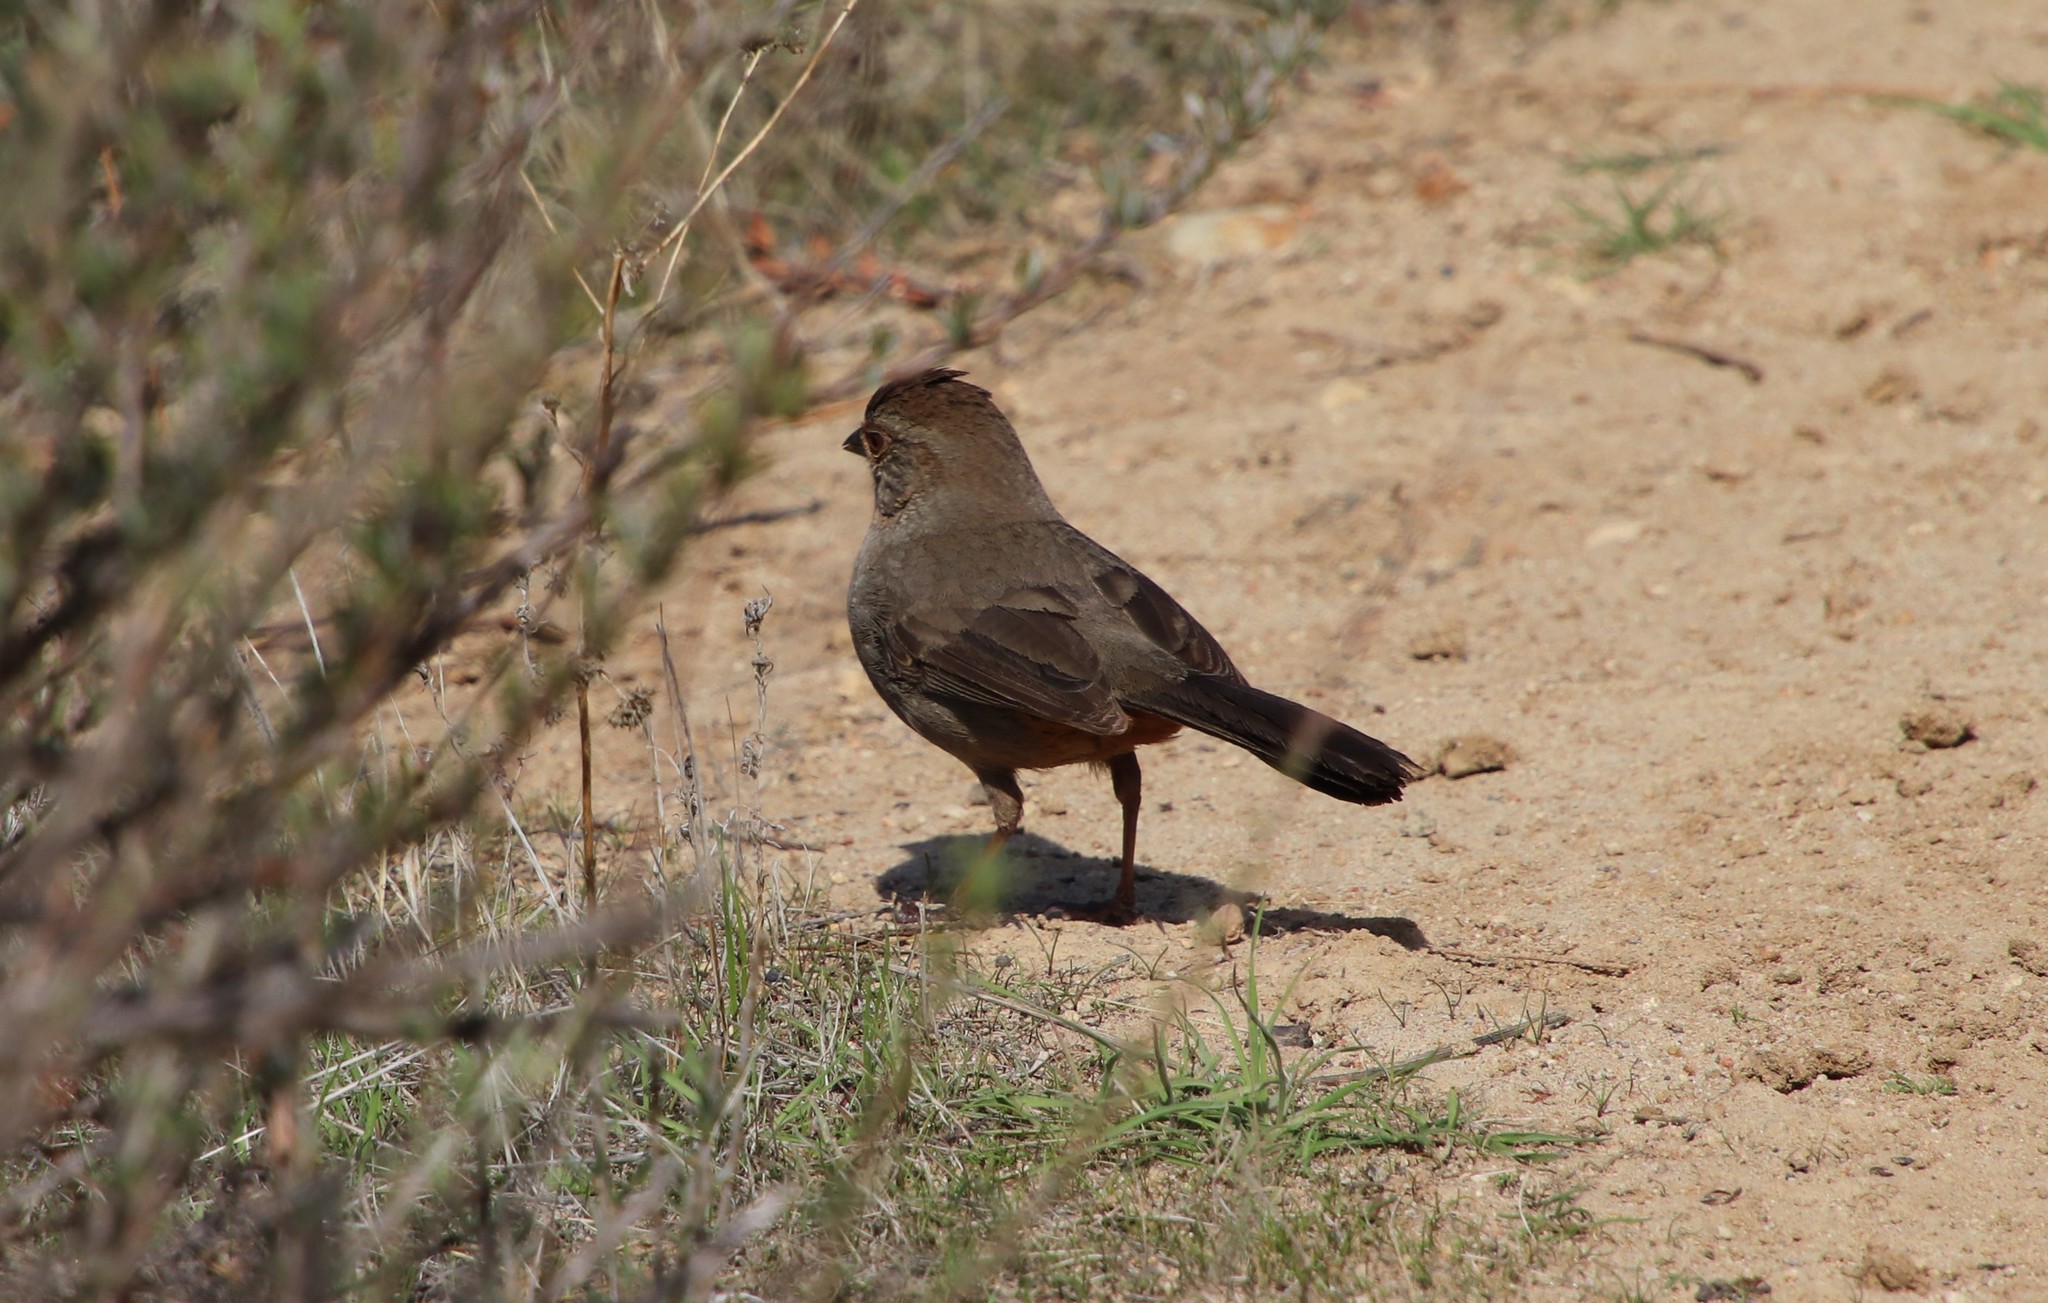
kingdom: Animalia
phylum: Chordata
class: Aves
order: Passeriformes
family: Passerellidae
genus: Melozone
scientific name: Melozone crissalis
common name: California towhee
